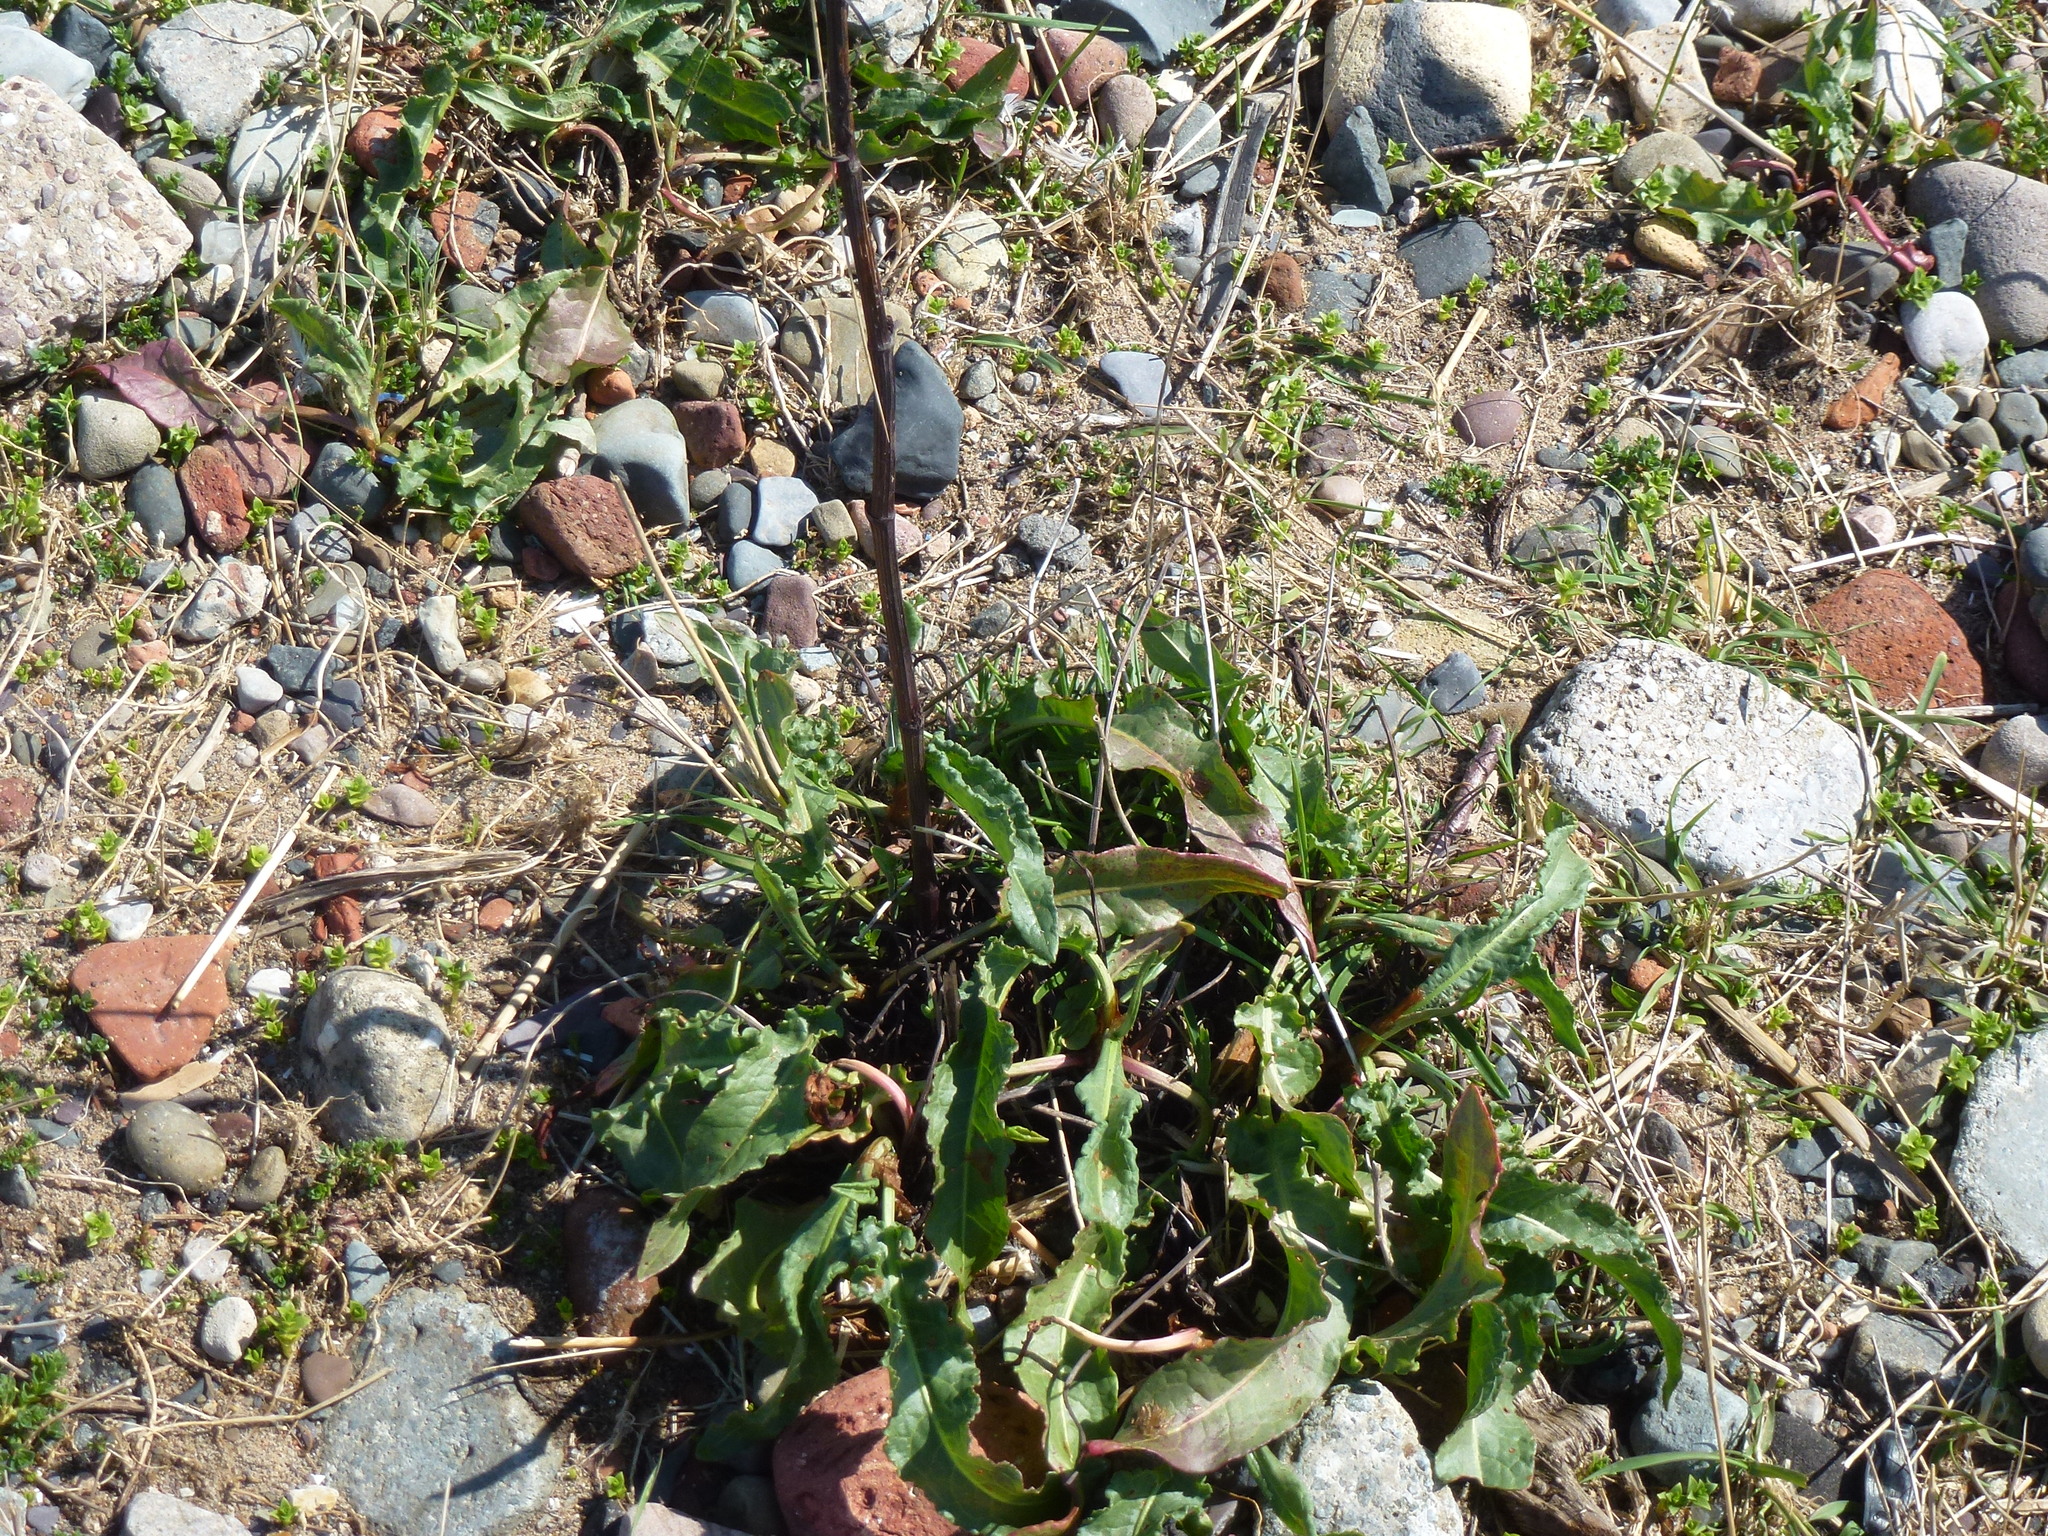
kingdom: Plantae
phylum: Tracheophyta
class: Magnoliopsida
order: Caryophyllales
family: Polygonaceae
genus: Rumex
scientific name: Rumex crispus
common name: Curled dock
